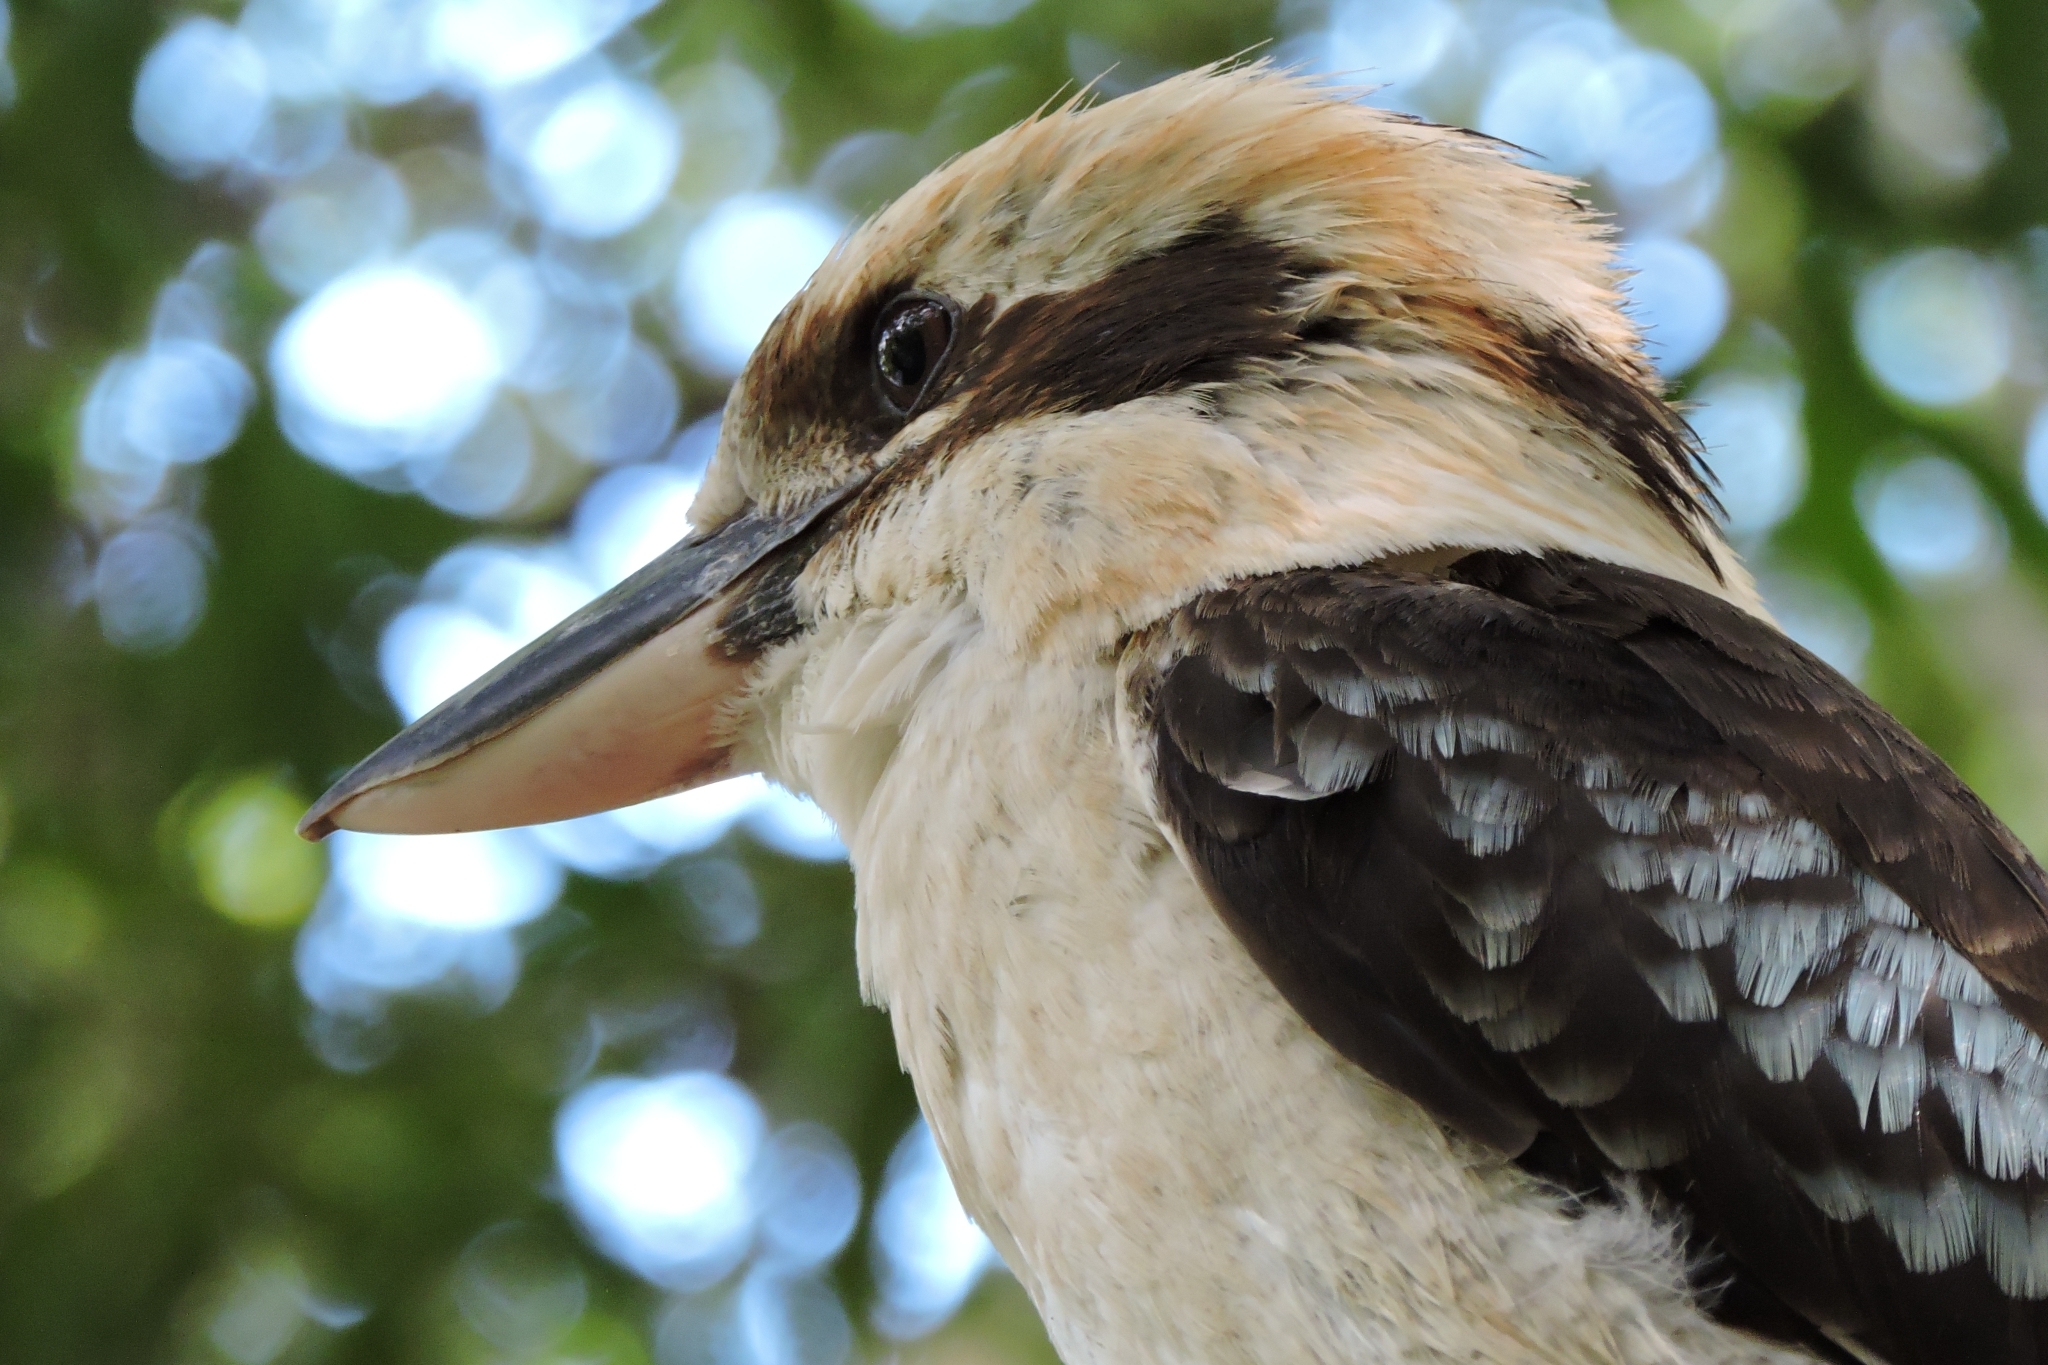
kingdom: Animalia
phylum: Chordata
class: Aves
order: Coraciiformes
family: Alcedinidae
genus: Dacelo
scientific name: Dacelo novaeguineae
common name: Laughing kookaburra
